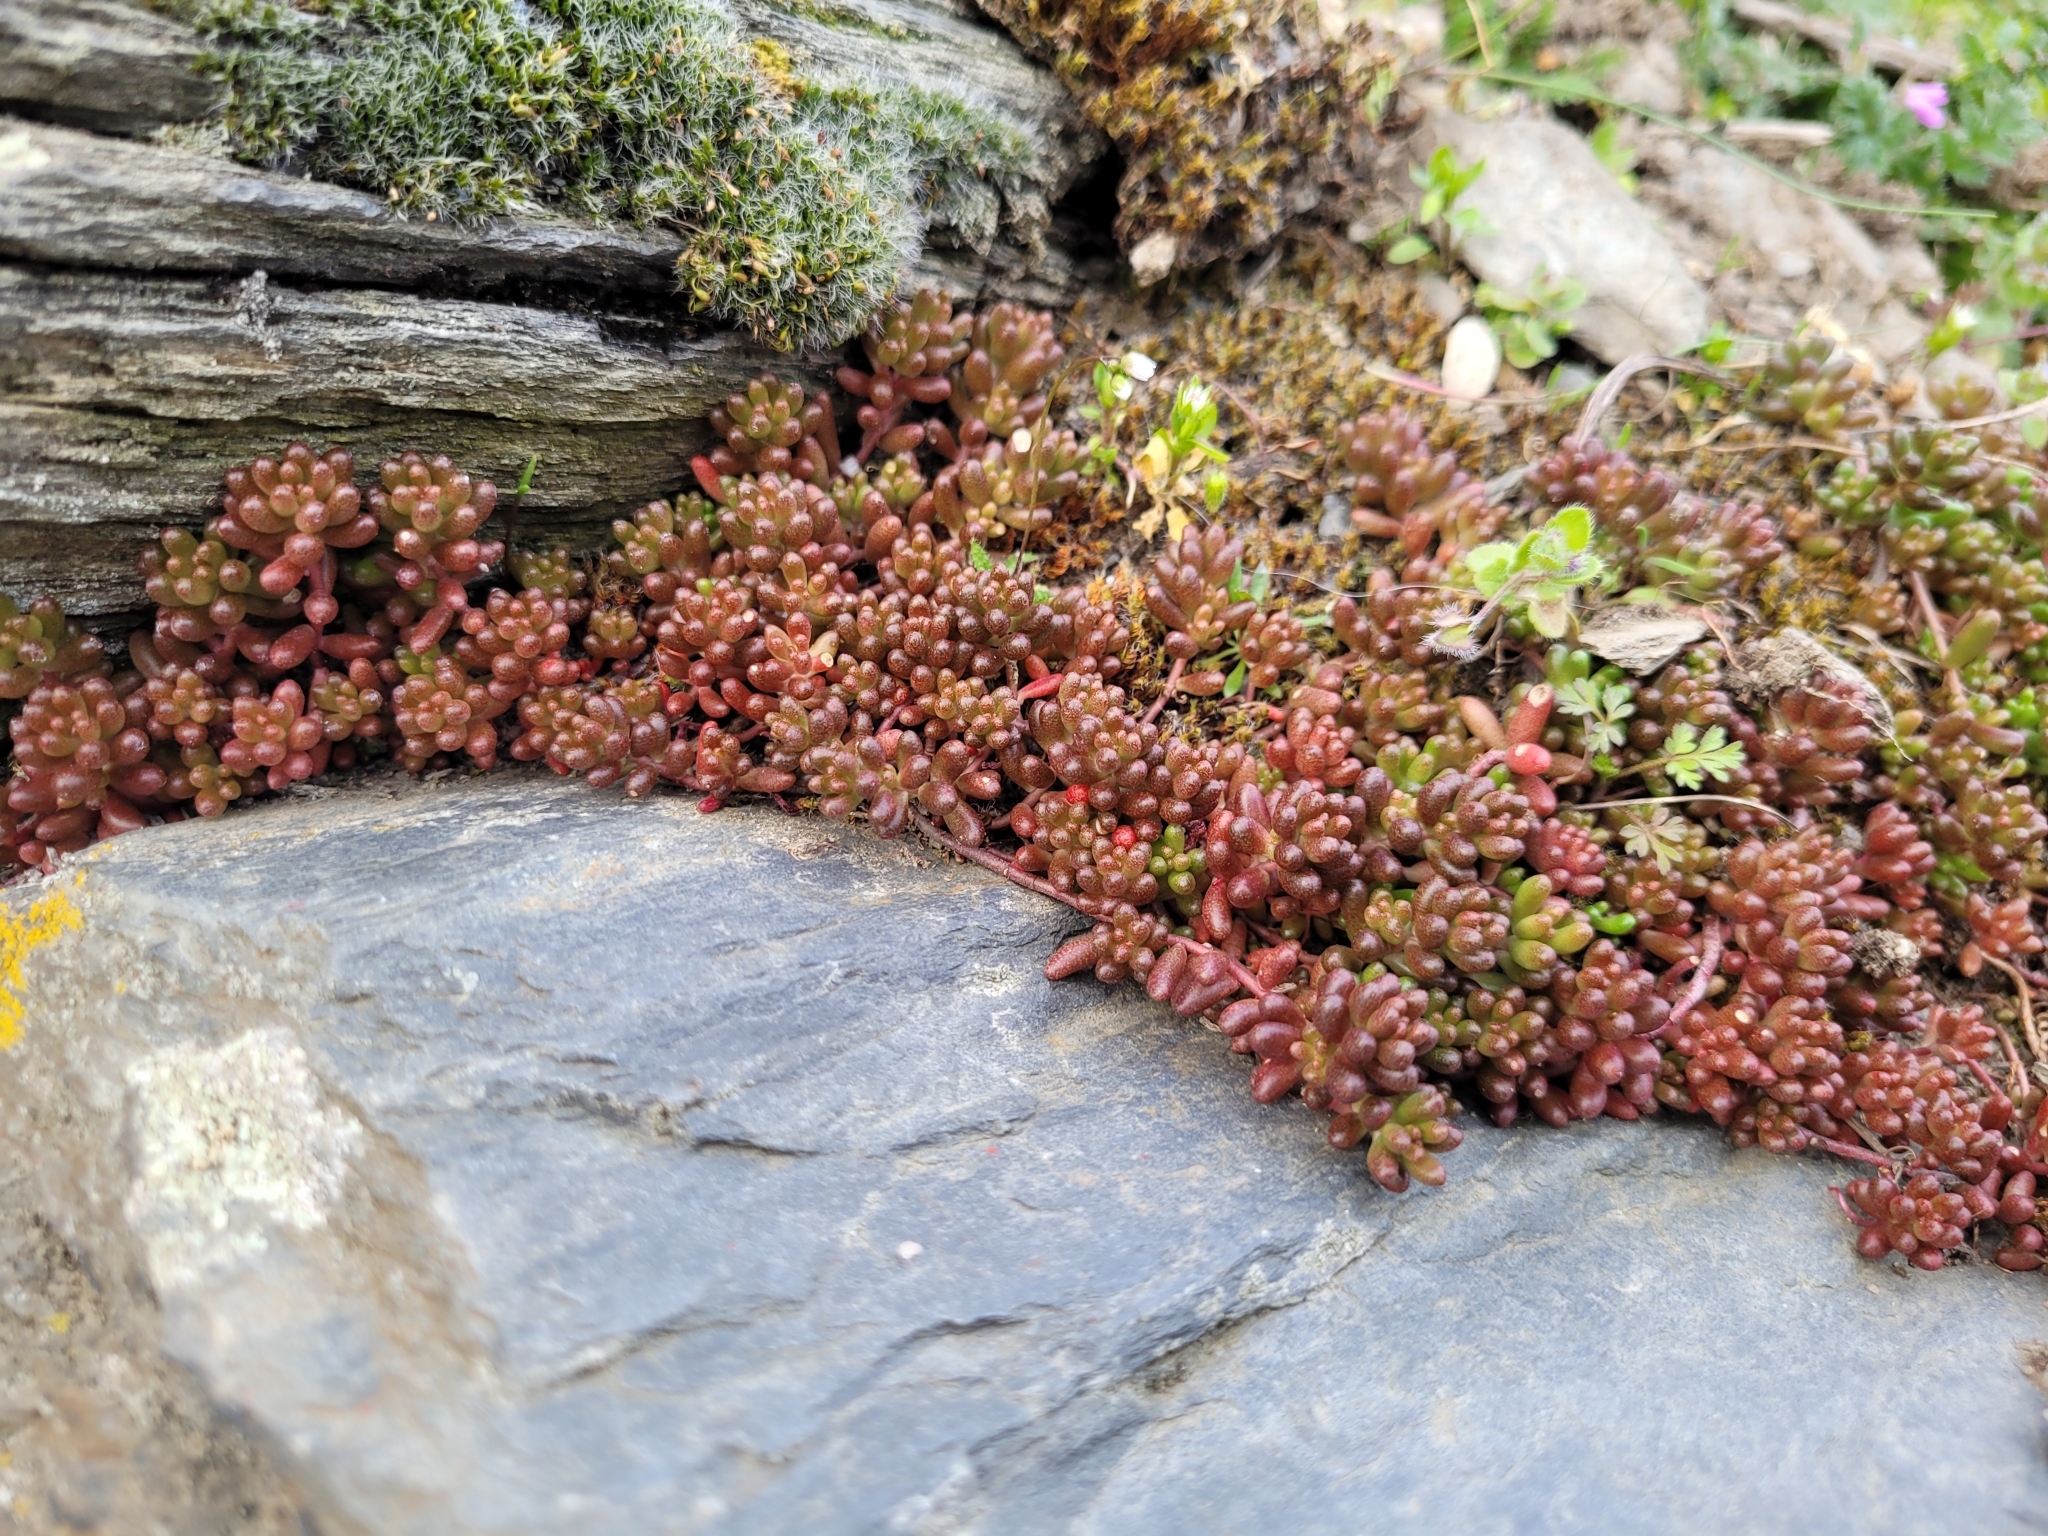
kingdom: Plantae
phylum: Tracheophyta
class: Magnoliopsida
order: Saxifragales
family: Crassulaceae
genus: Sedum
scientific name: Sedum album
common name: White stonecrop
